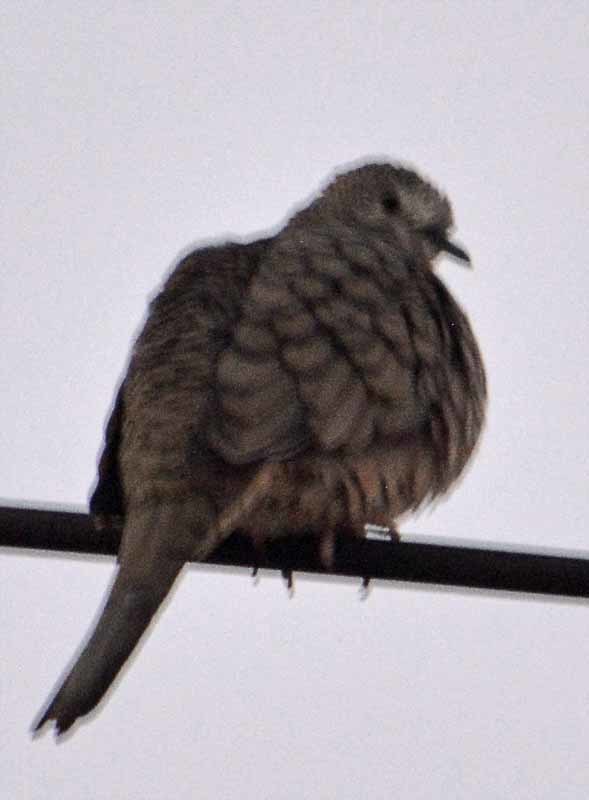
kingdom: Animalia
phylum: Chordata
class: Aves
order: Columbiformes
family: Columbidae
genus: Columbina
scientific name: Columbina inca
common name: Inca dove
